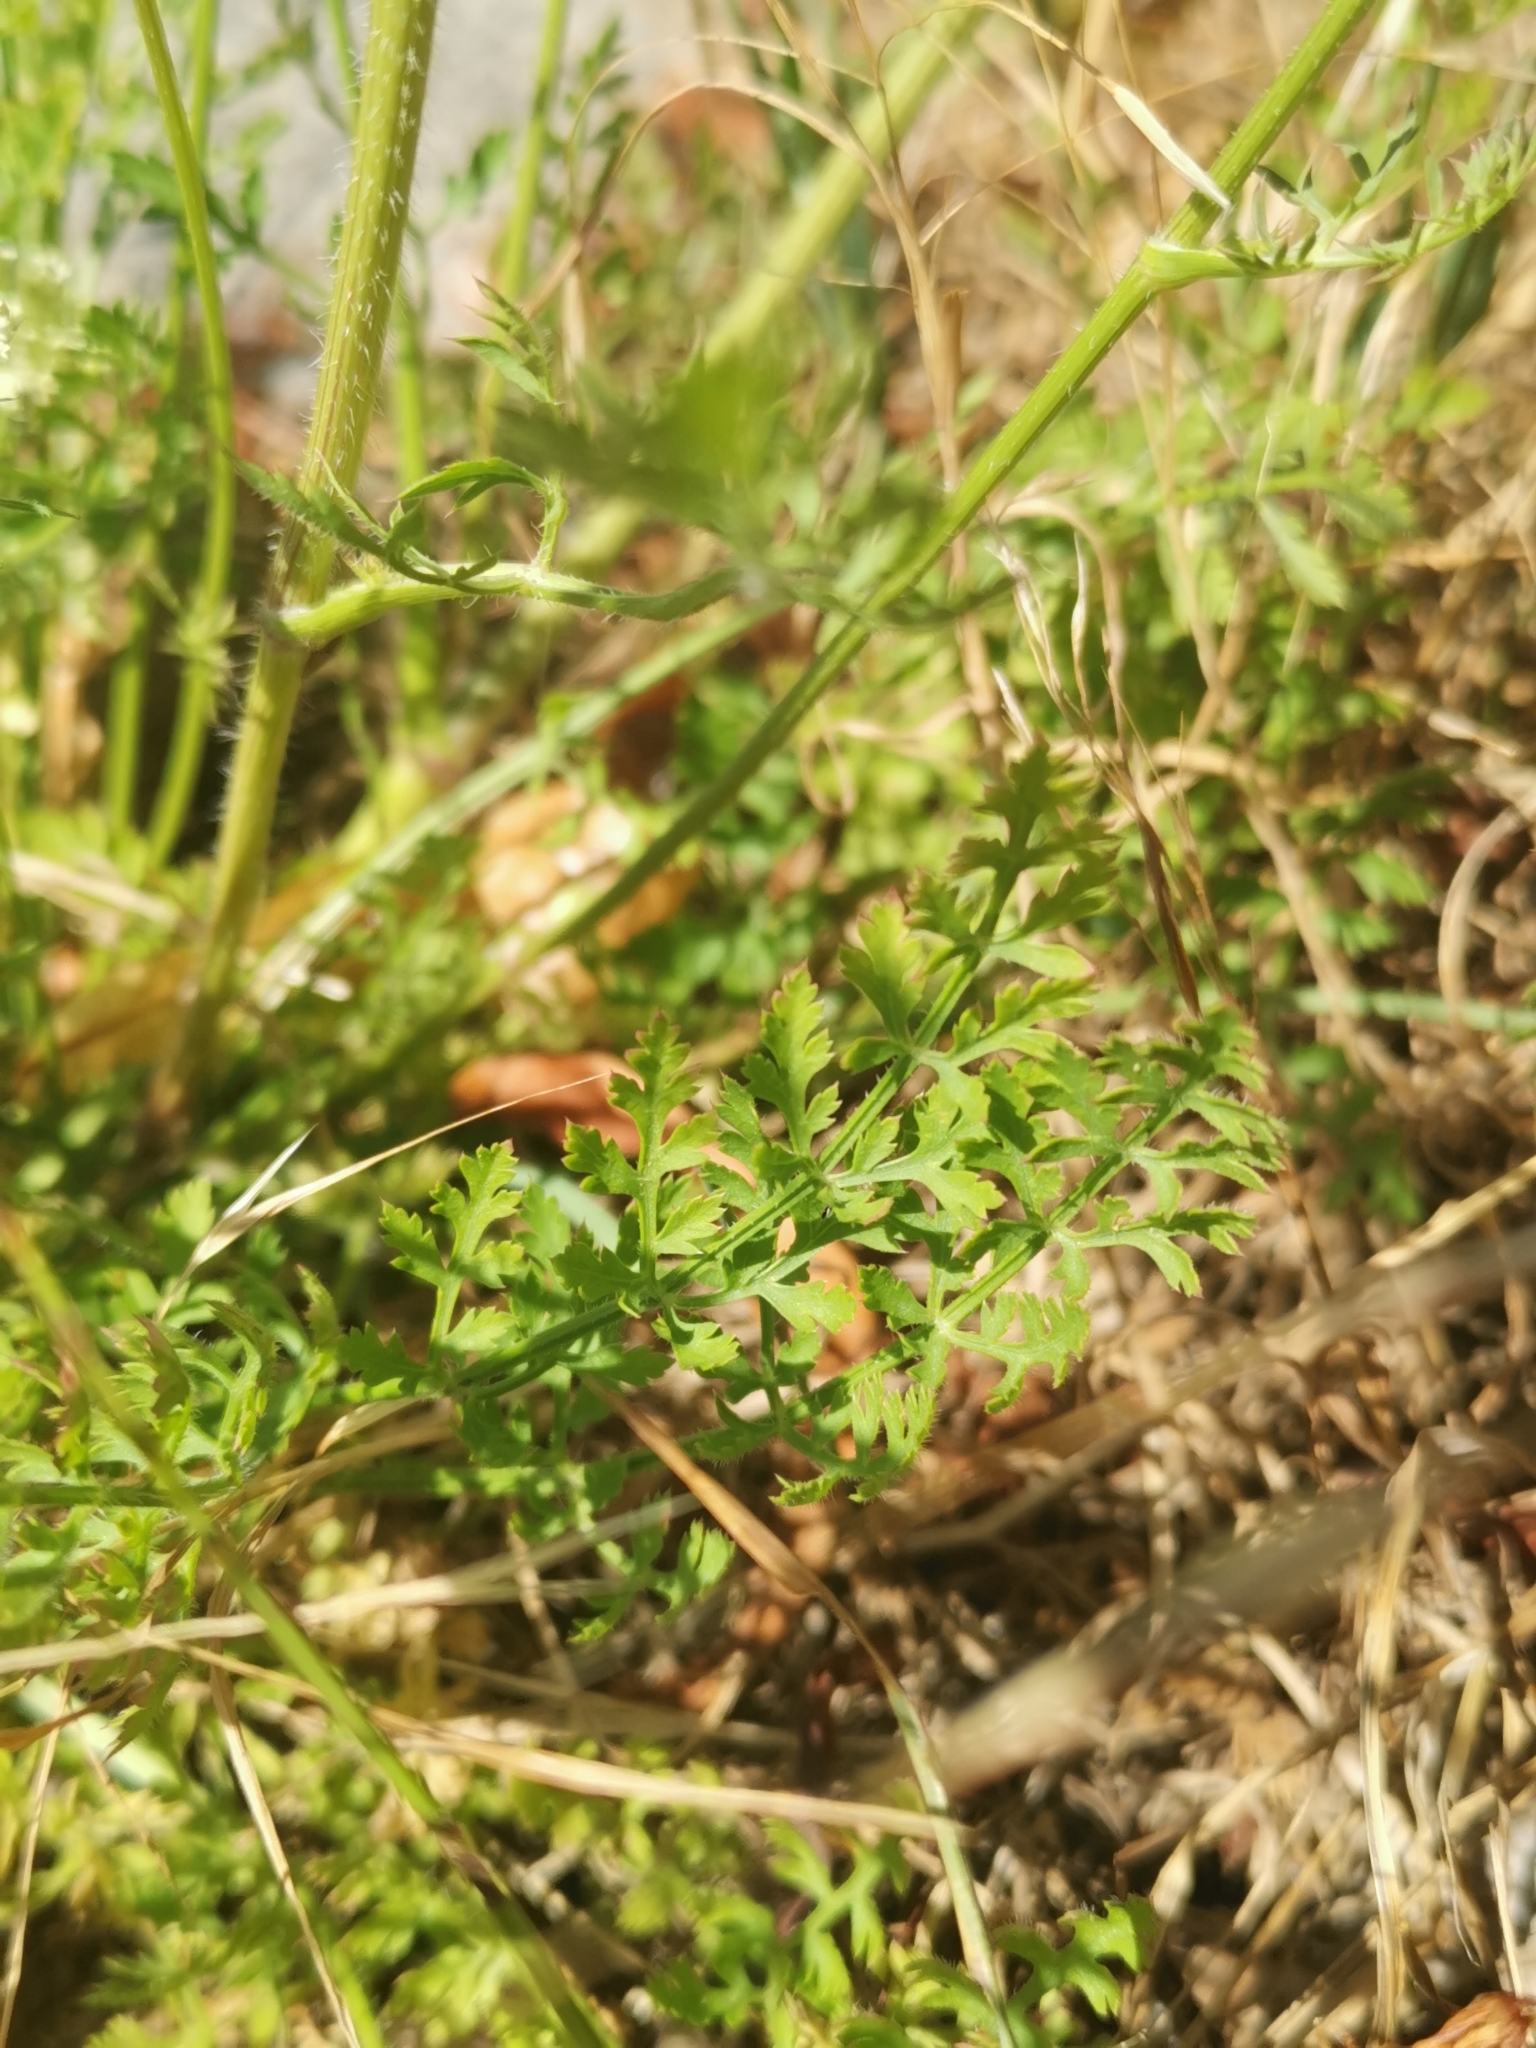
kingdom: Plantae
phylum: Tracheophyta
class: Magnoliopsida
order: Apiales
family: Apiaceae
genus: Daucus
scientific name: Daucus carota
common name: Wild carrot
